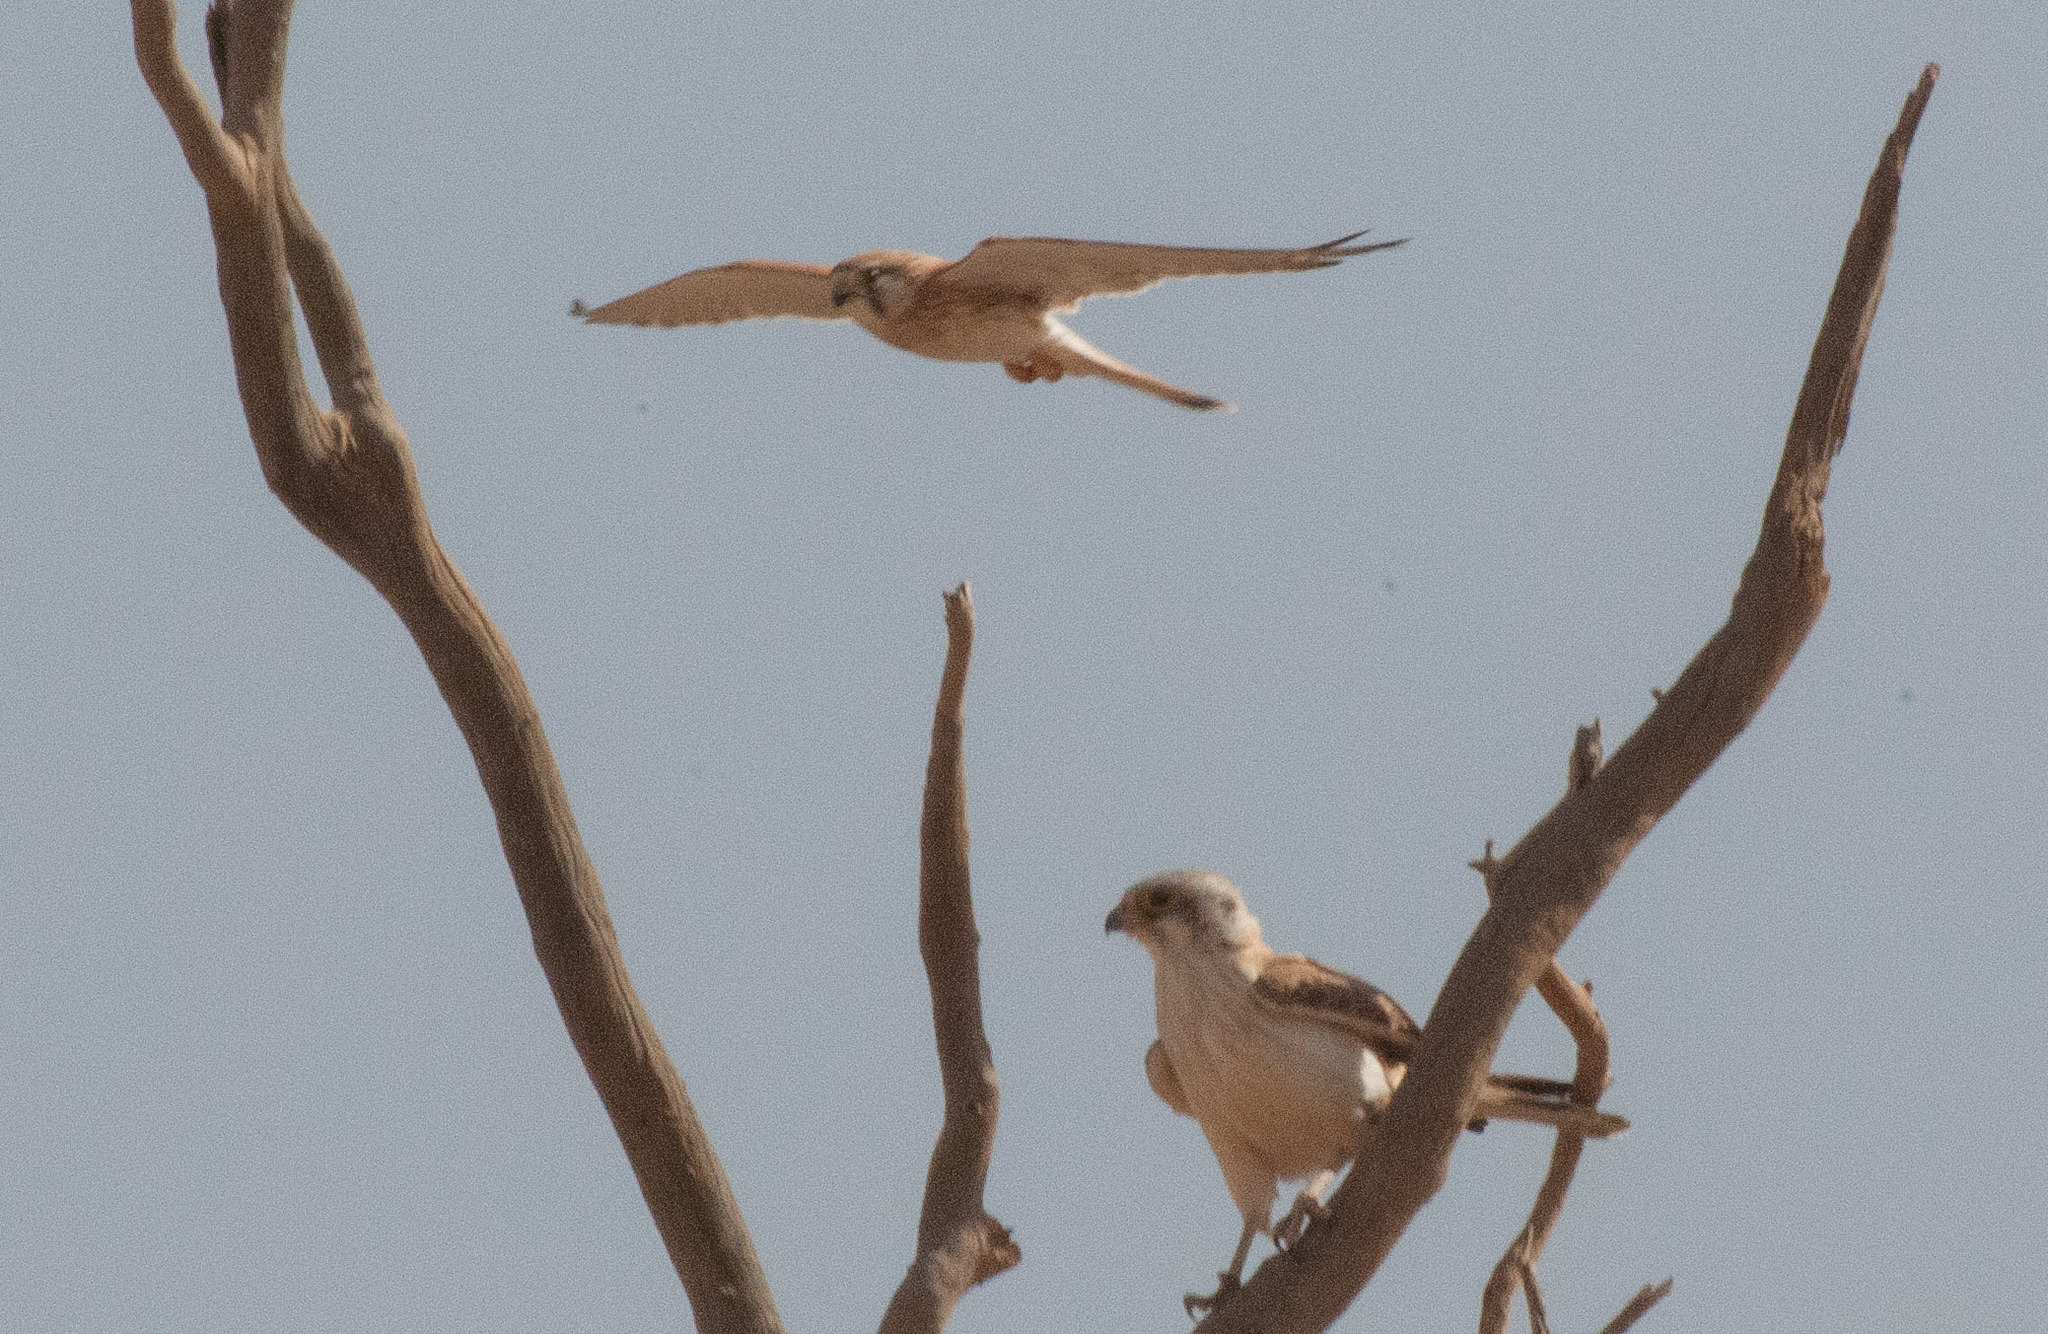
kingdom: Animalia
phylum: Chordata
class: Aves
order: Falconiformes
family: Falconidae
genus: Falco
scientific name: Falco cenchroides
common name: Nankeen kestrel
